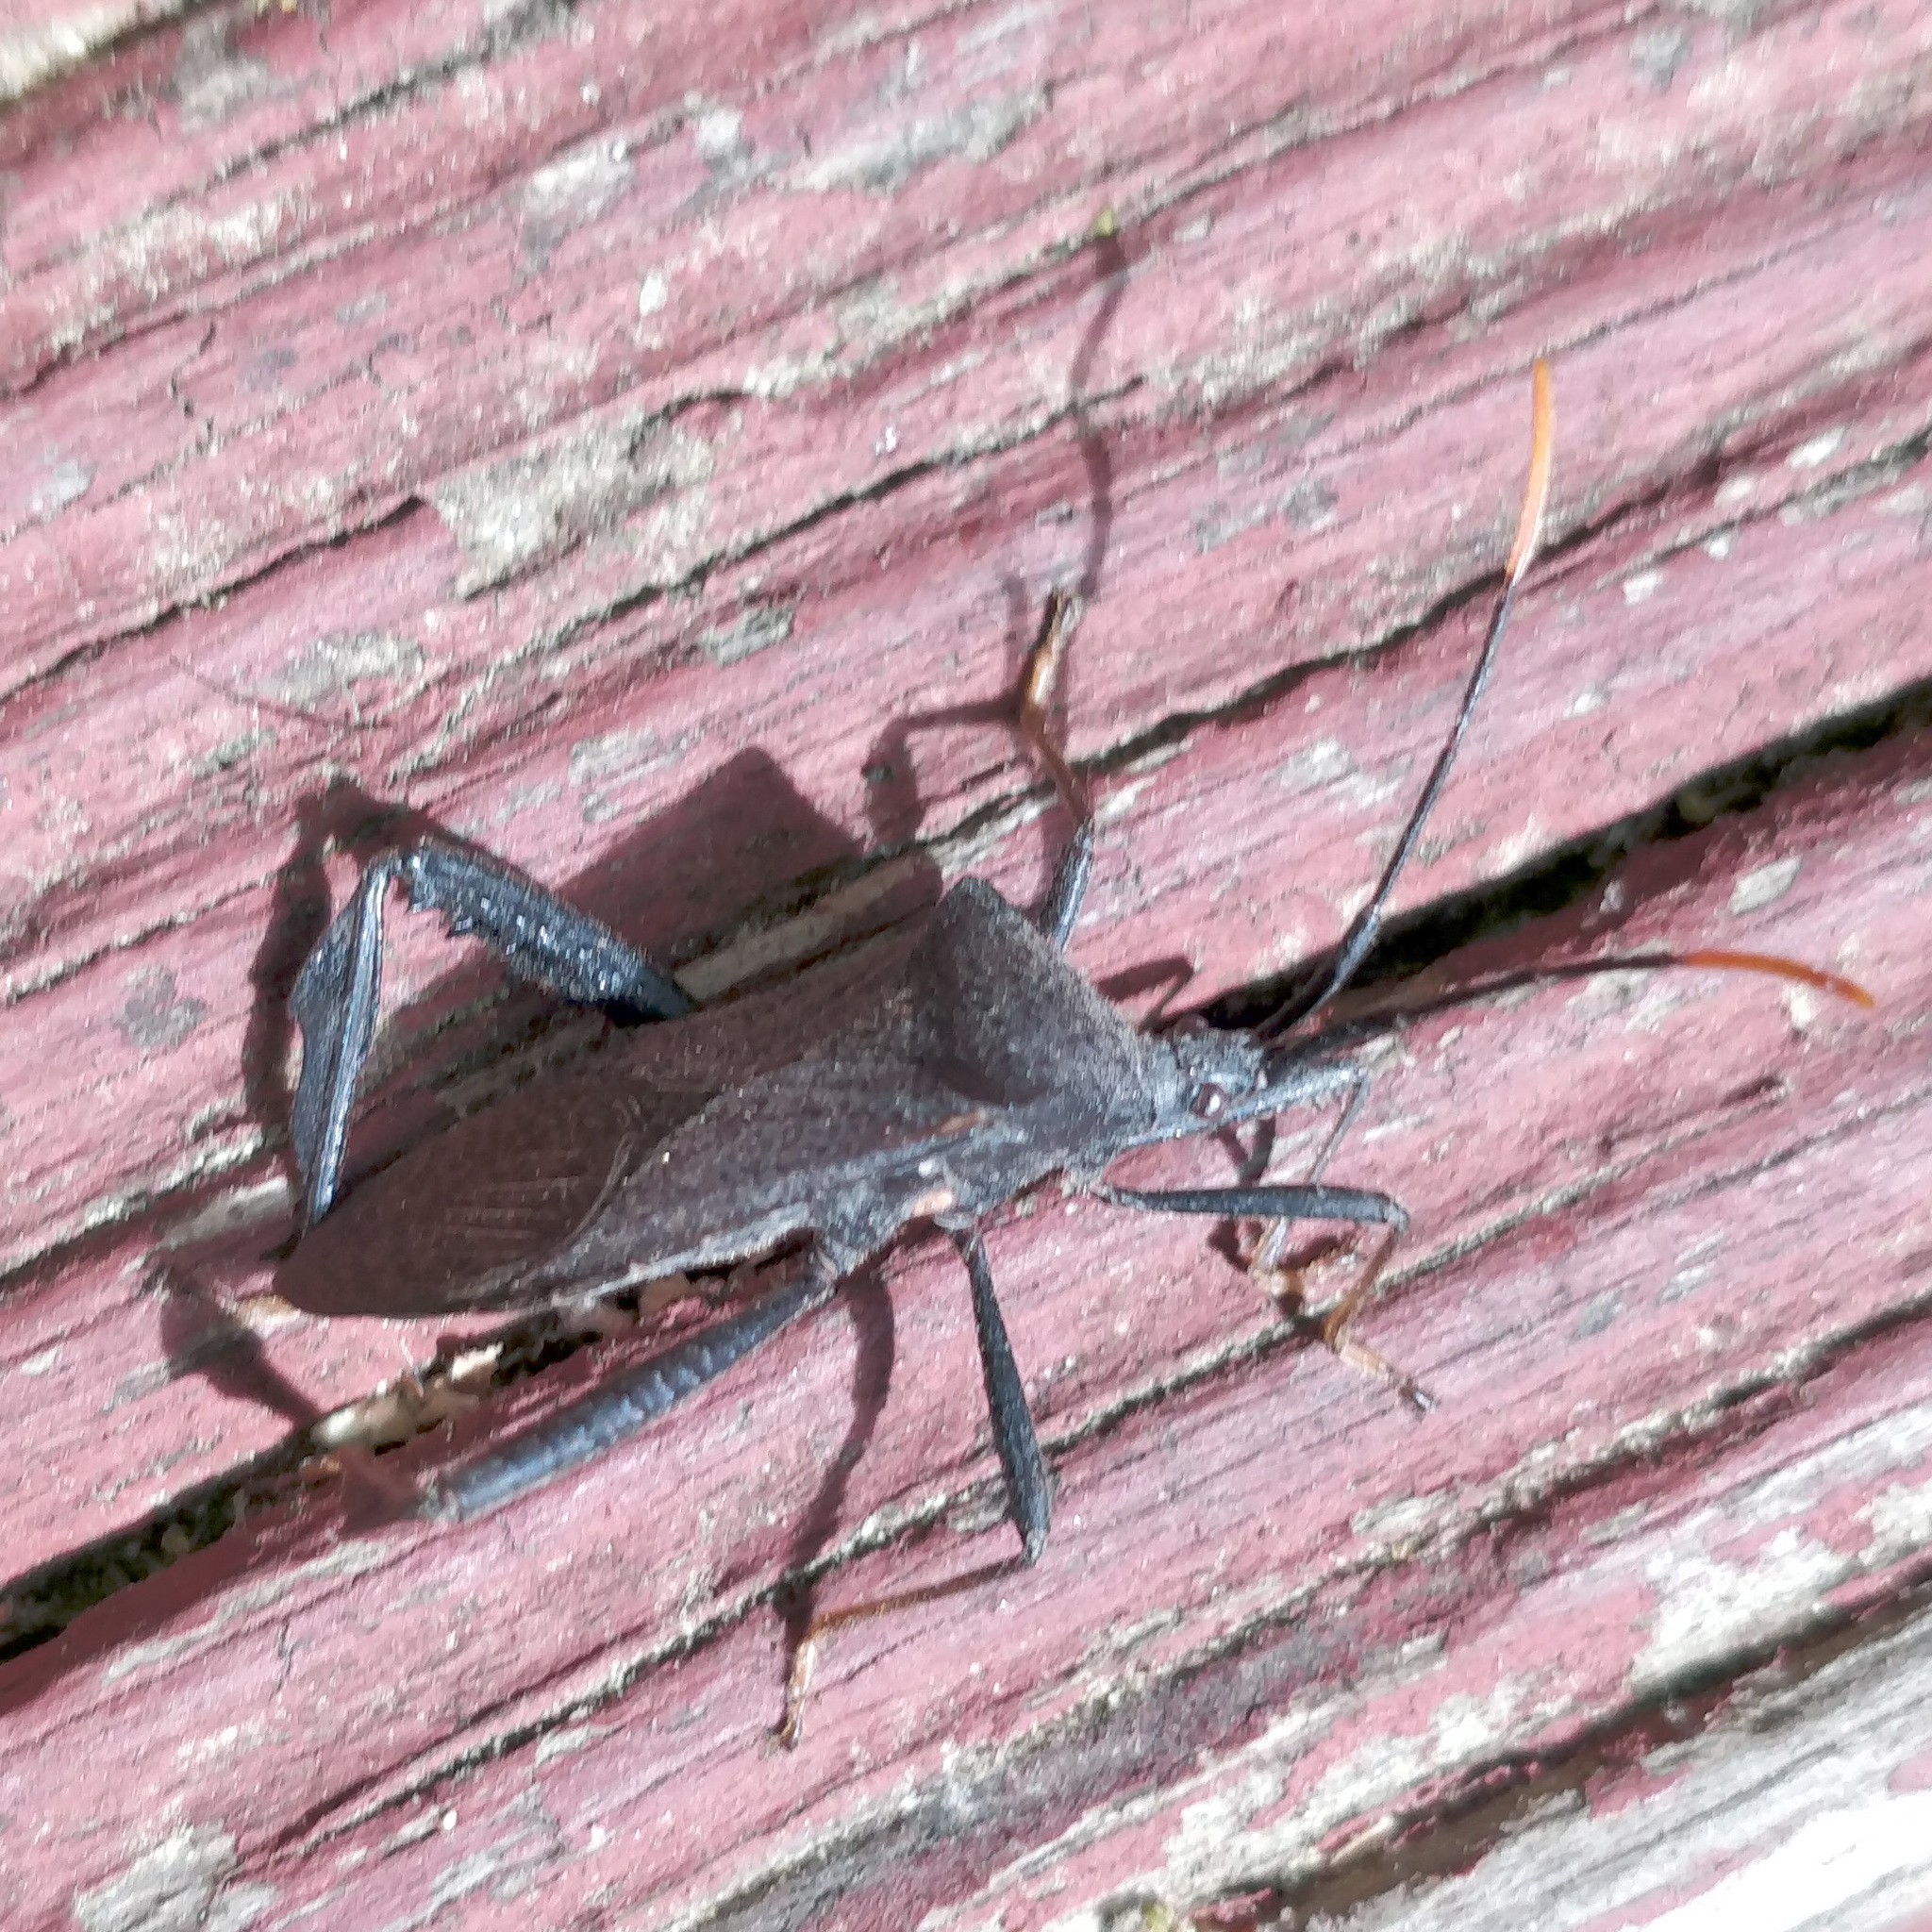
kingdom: Animalia
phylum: Arthropoda
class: Insecta
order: Hemiptera
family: Coreidae
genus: Acanthocephala
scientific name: Acanthocephala terminalis
